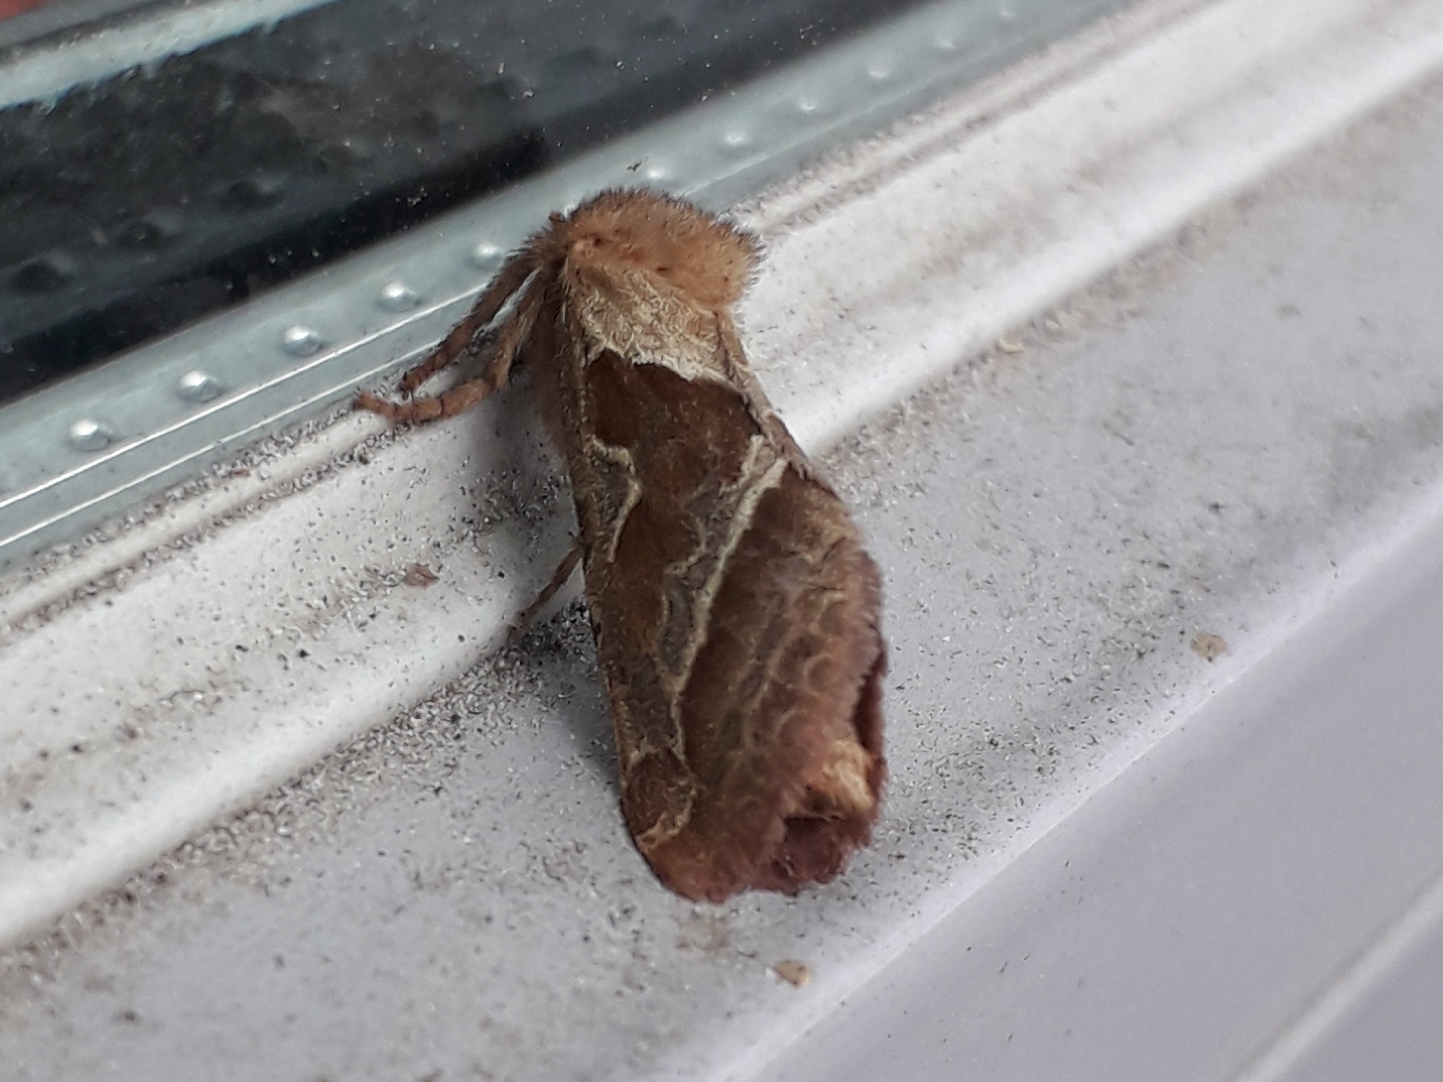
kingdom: Animalia
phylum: Arthropoda
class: Insecta
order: Lepidoptera
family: Hepialidae
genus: Triodia
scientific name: Triodia sylvina
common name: Orange swift
